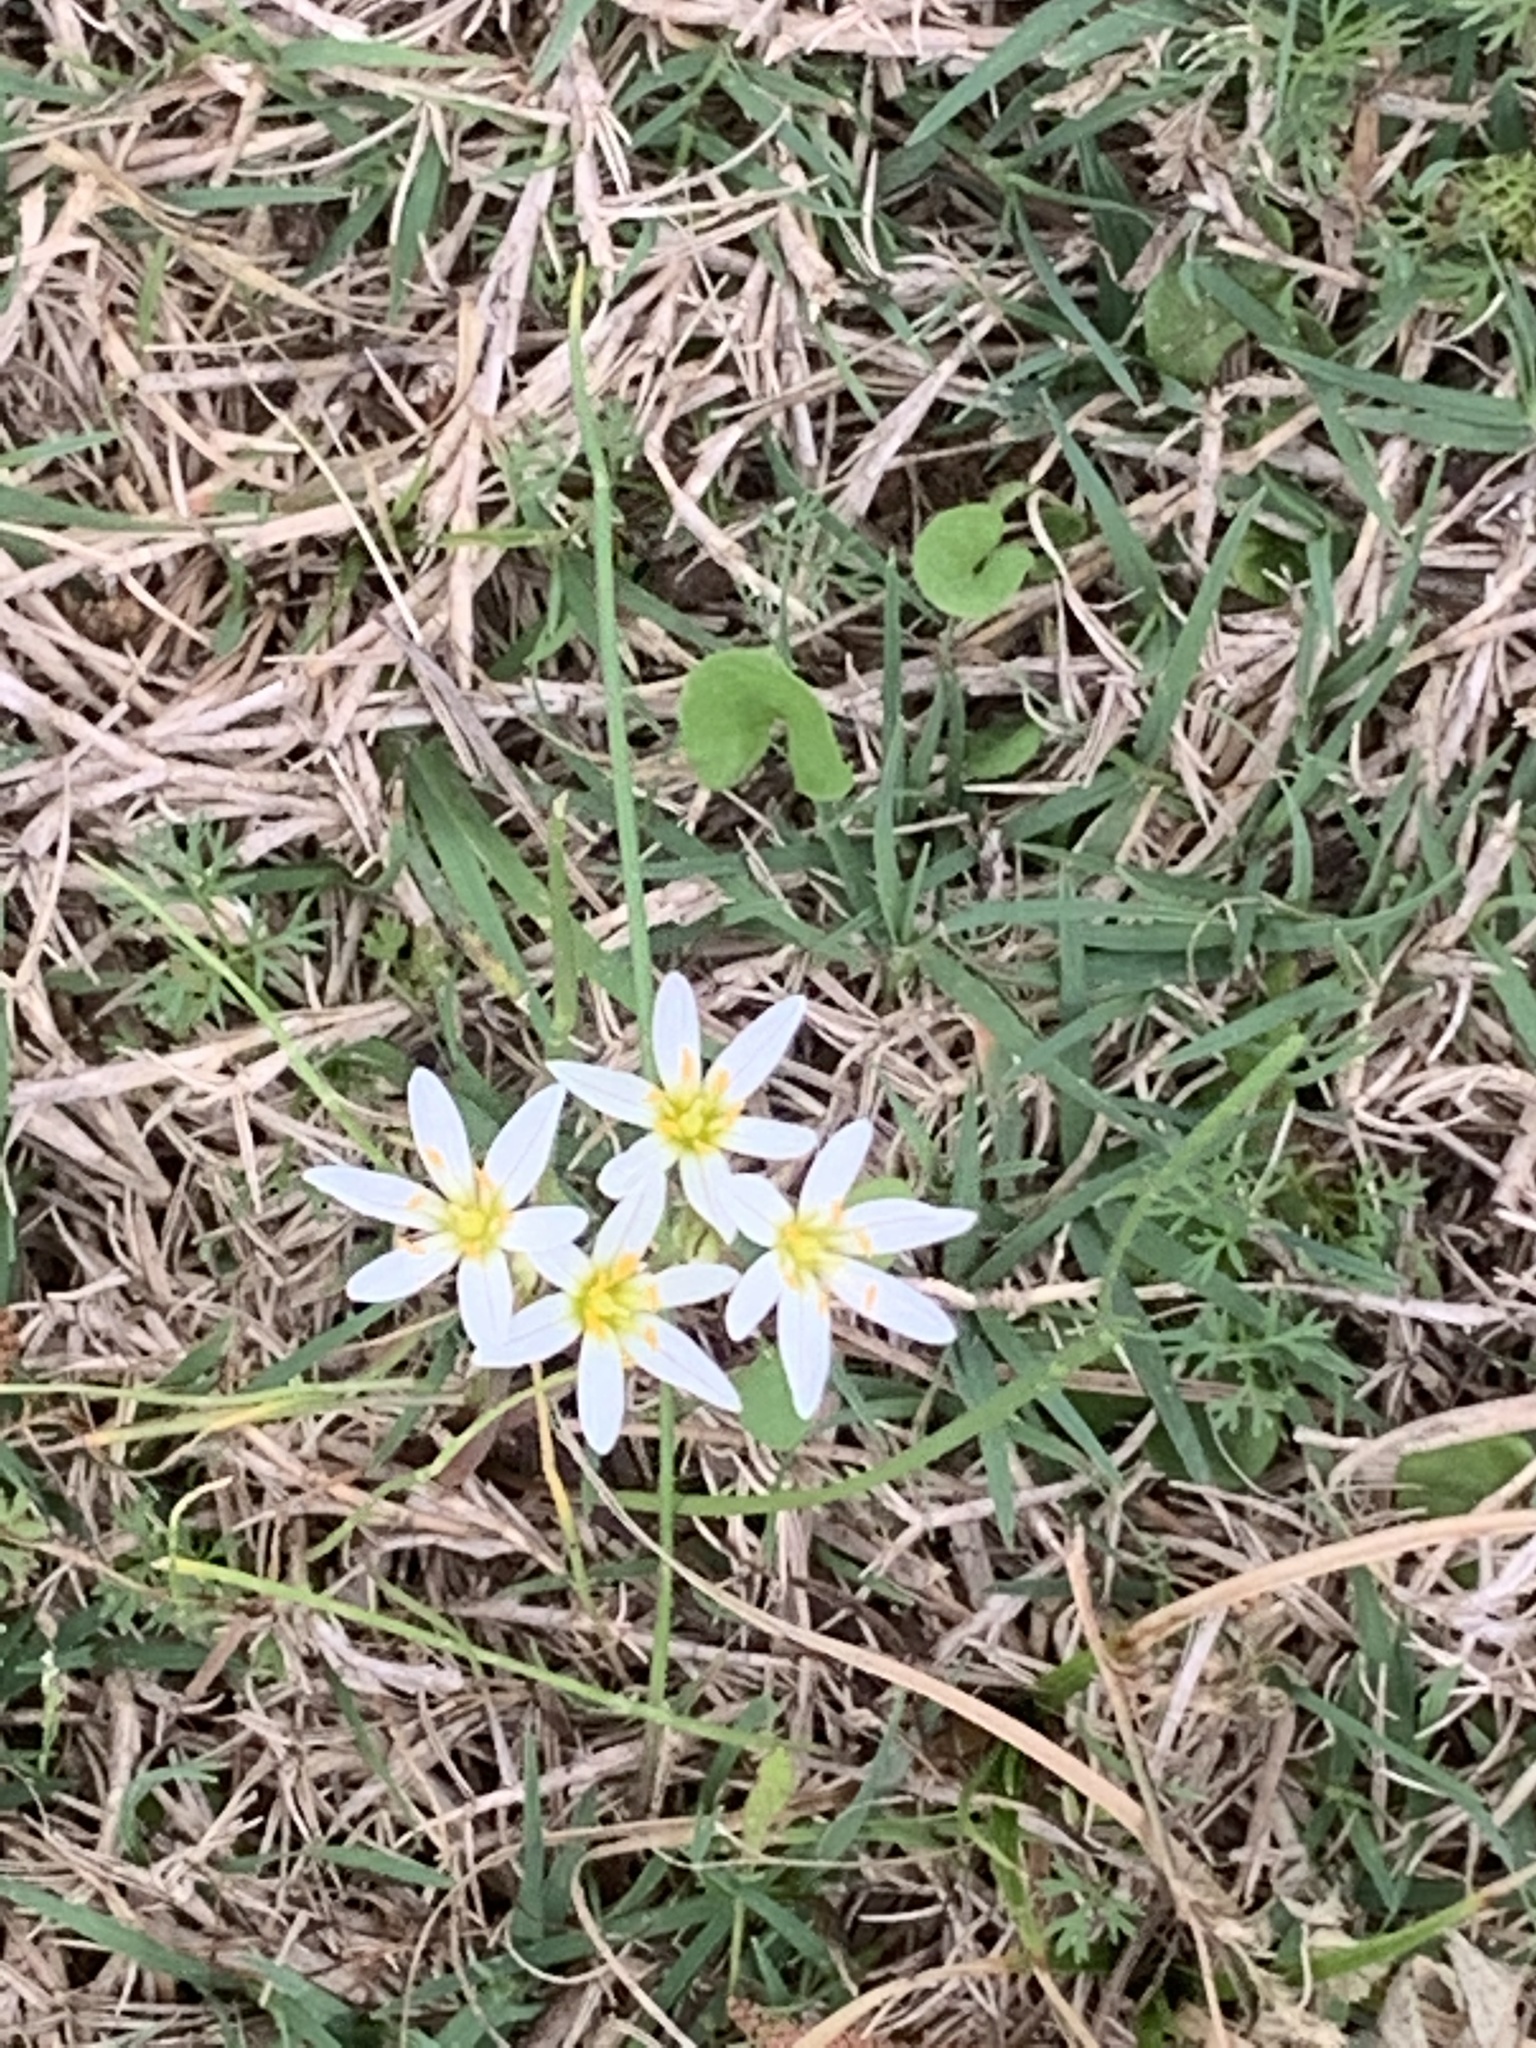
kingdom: Plantae
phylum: Tracheophyta
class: Liliopsida
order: Asparagales
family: Amaryllidaceae
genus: Nothoscordum
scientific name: Nothoscordum bivalve
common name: Crow-poison
